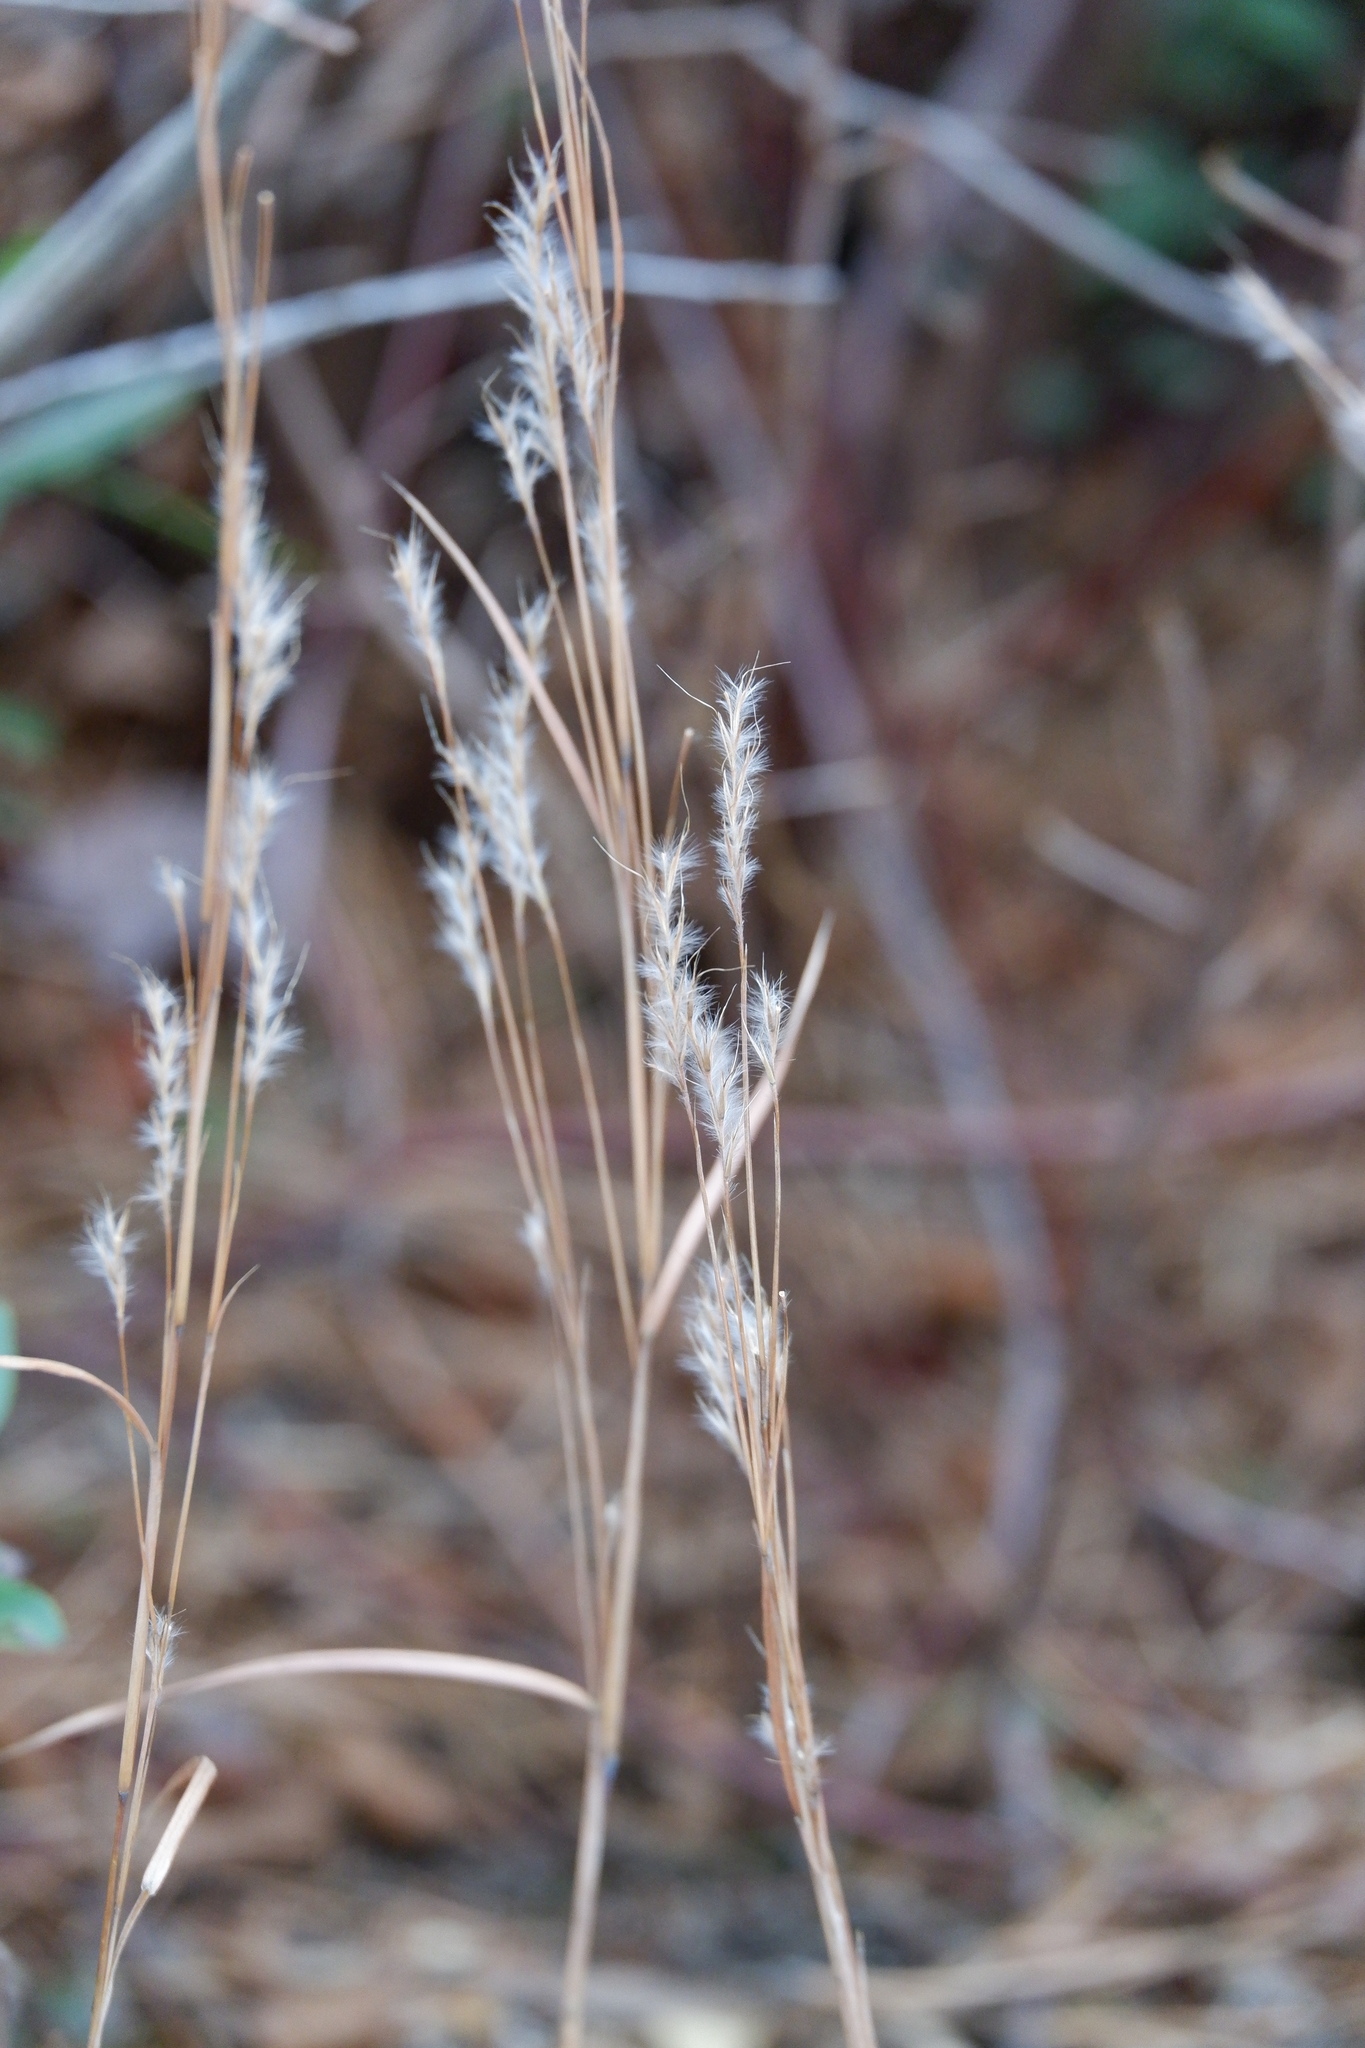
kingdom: Plantae
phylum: Tracheophyta
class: Liliopsida
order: Poales
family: Poaceae
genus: Schizachyrium
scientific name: Schizachyrium scoparium
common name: Little bluestem
